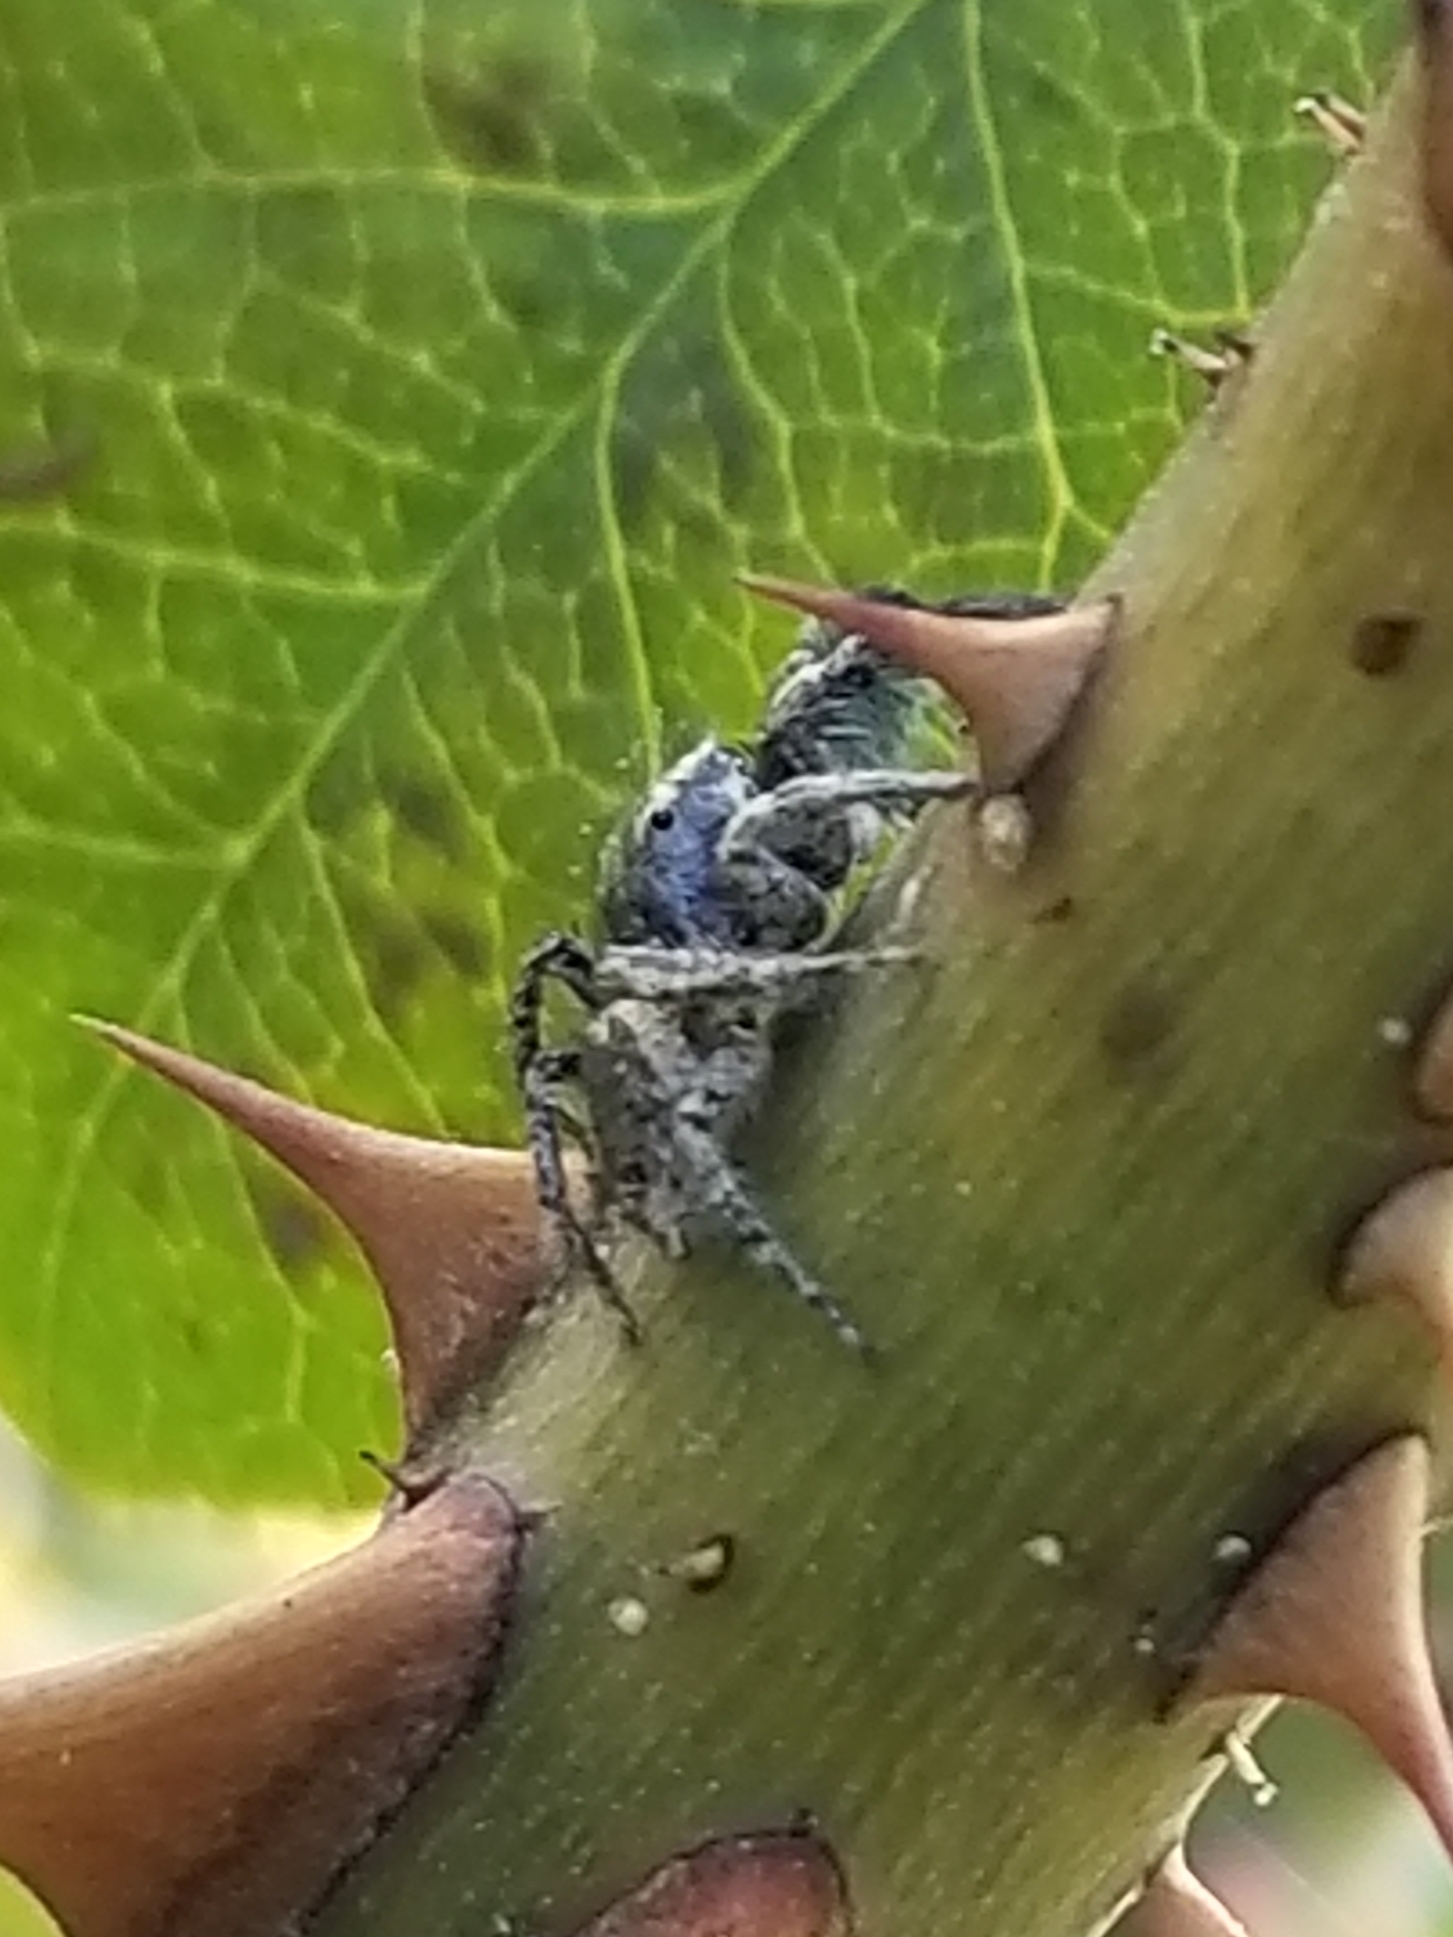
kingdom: Animalia
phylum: Arthropoda
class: Arachnida
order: Araneae
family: Salticidae
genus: Habronattus
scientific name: Habronattus hirsutus
